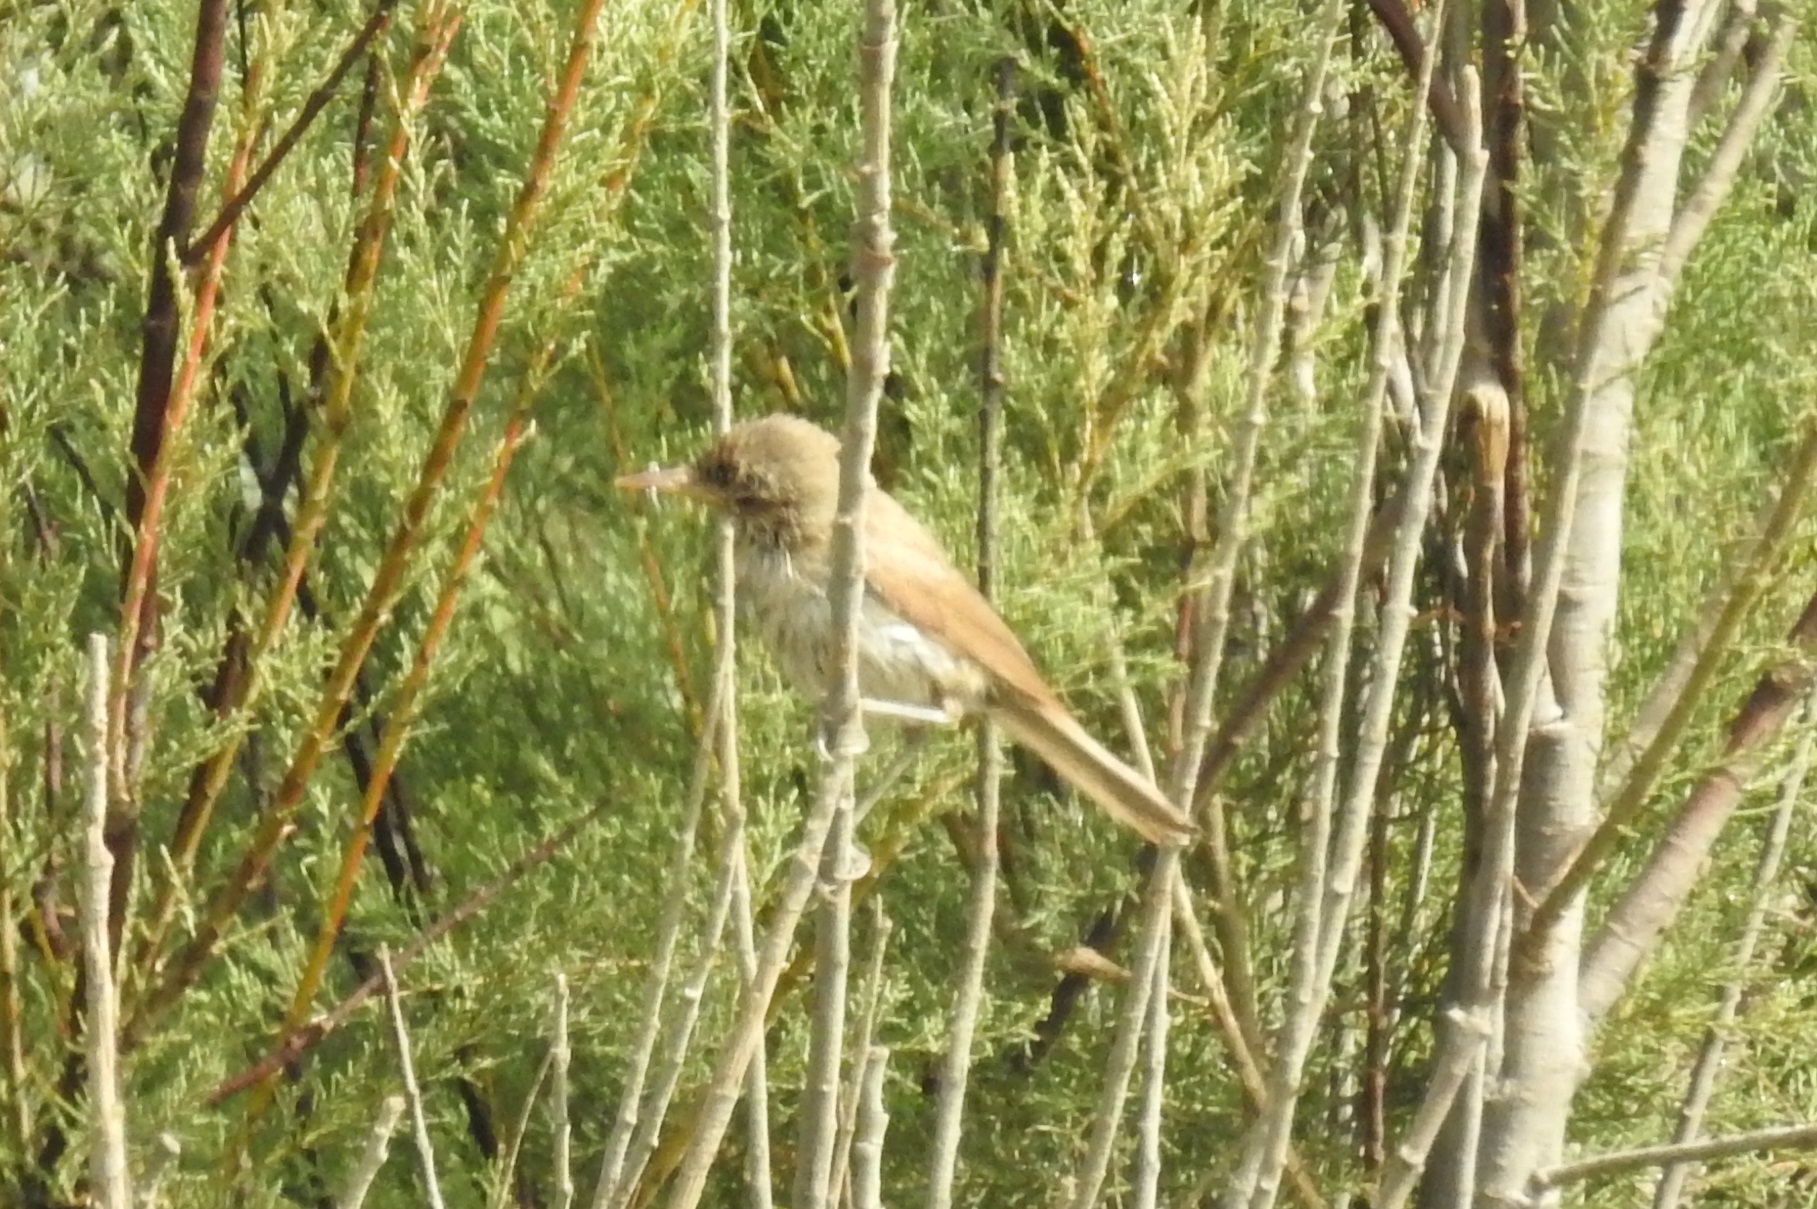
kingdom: Animalia
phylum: Chordata
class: Aves
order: Passeriformes
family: Acrocephalidae
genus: Acrocephalus
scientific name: Acrocephalus scirpaceus
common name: Eurasian reed warbler
